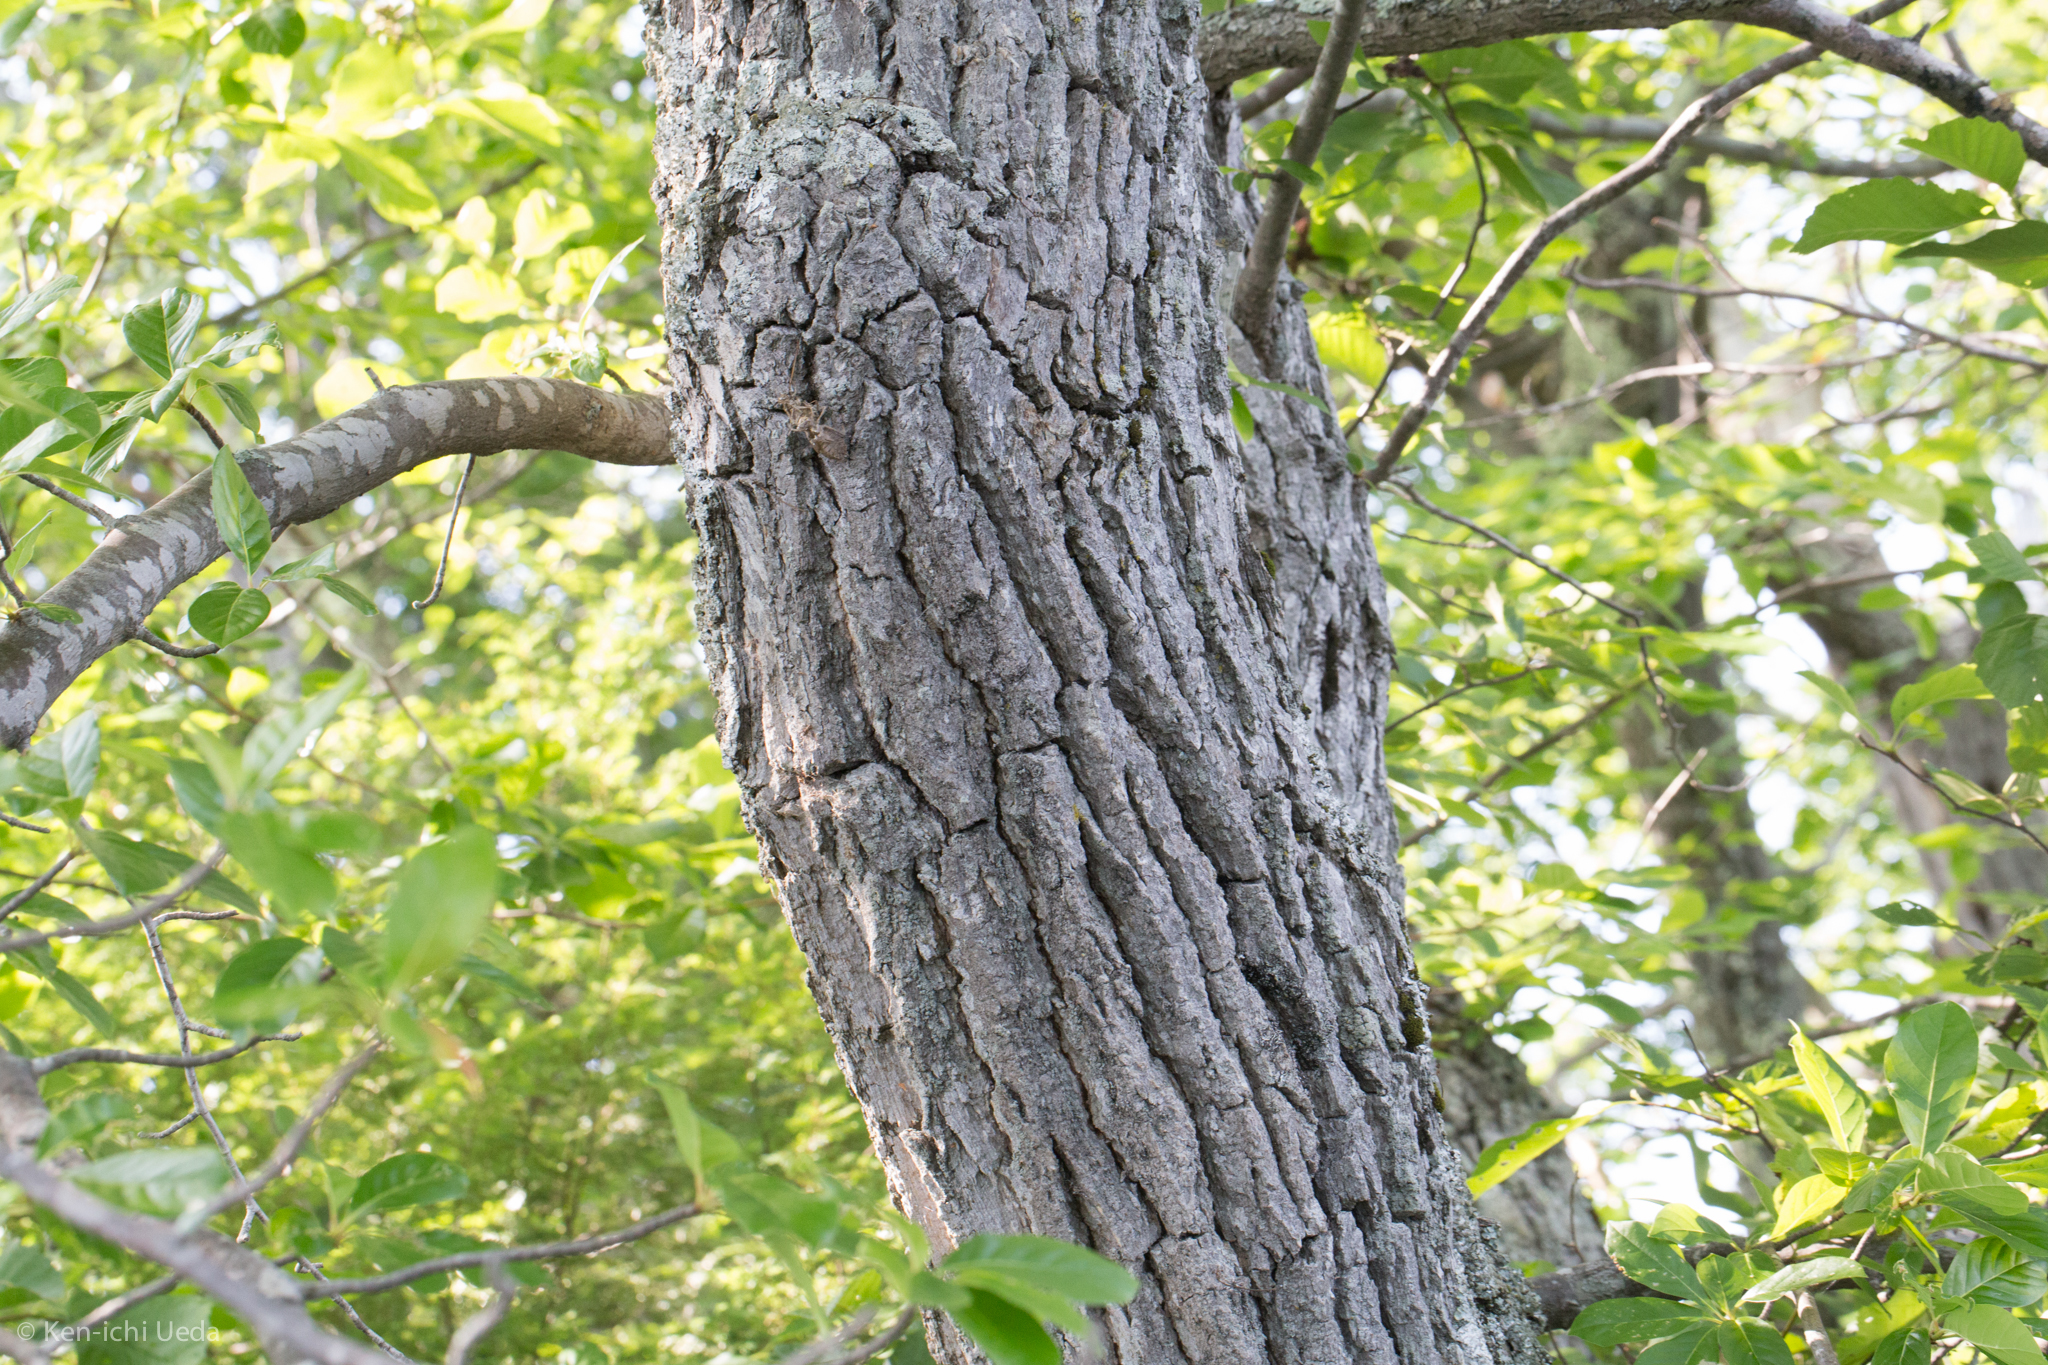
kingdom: Plantae
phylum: Tracheophyta
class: Magnoliopsida
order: Cornales
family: Nyssaceae
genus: Nyssa
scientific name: Nyssa sylvatica
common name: Black tupelo
